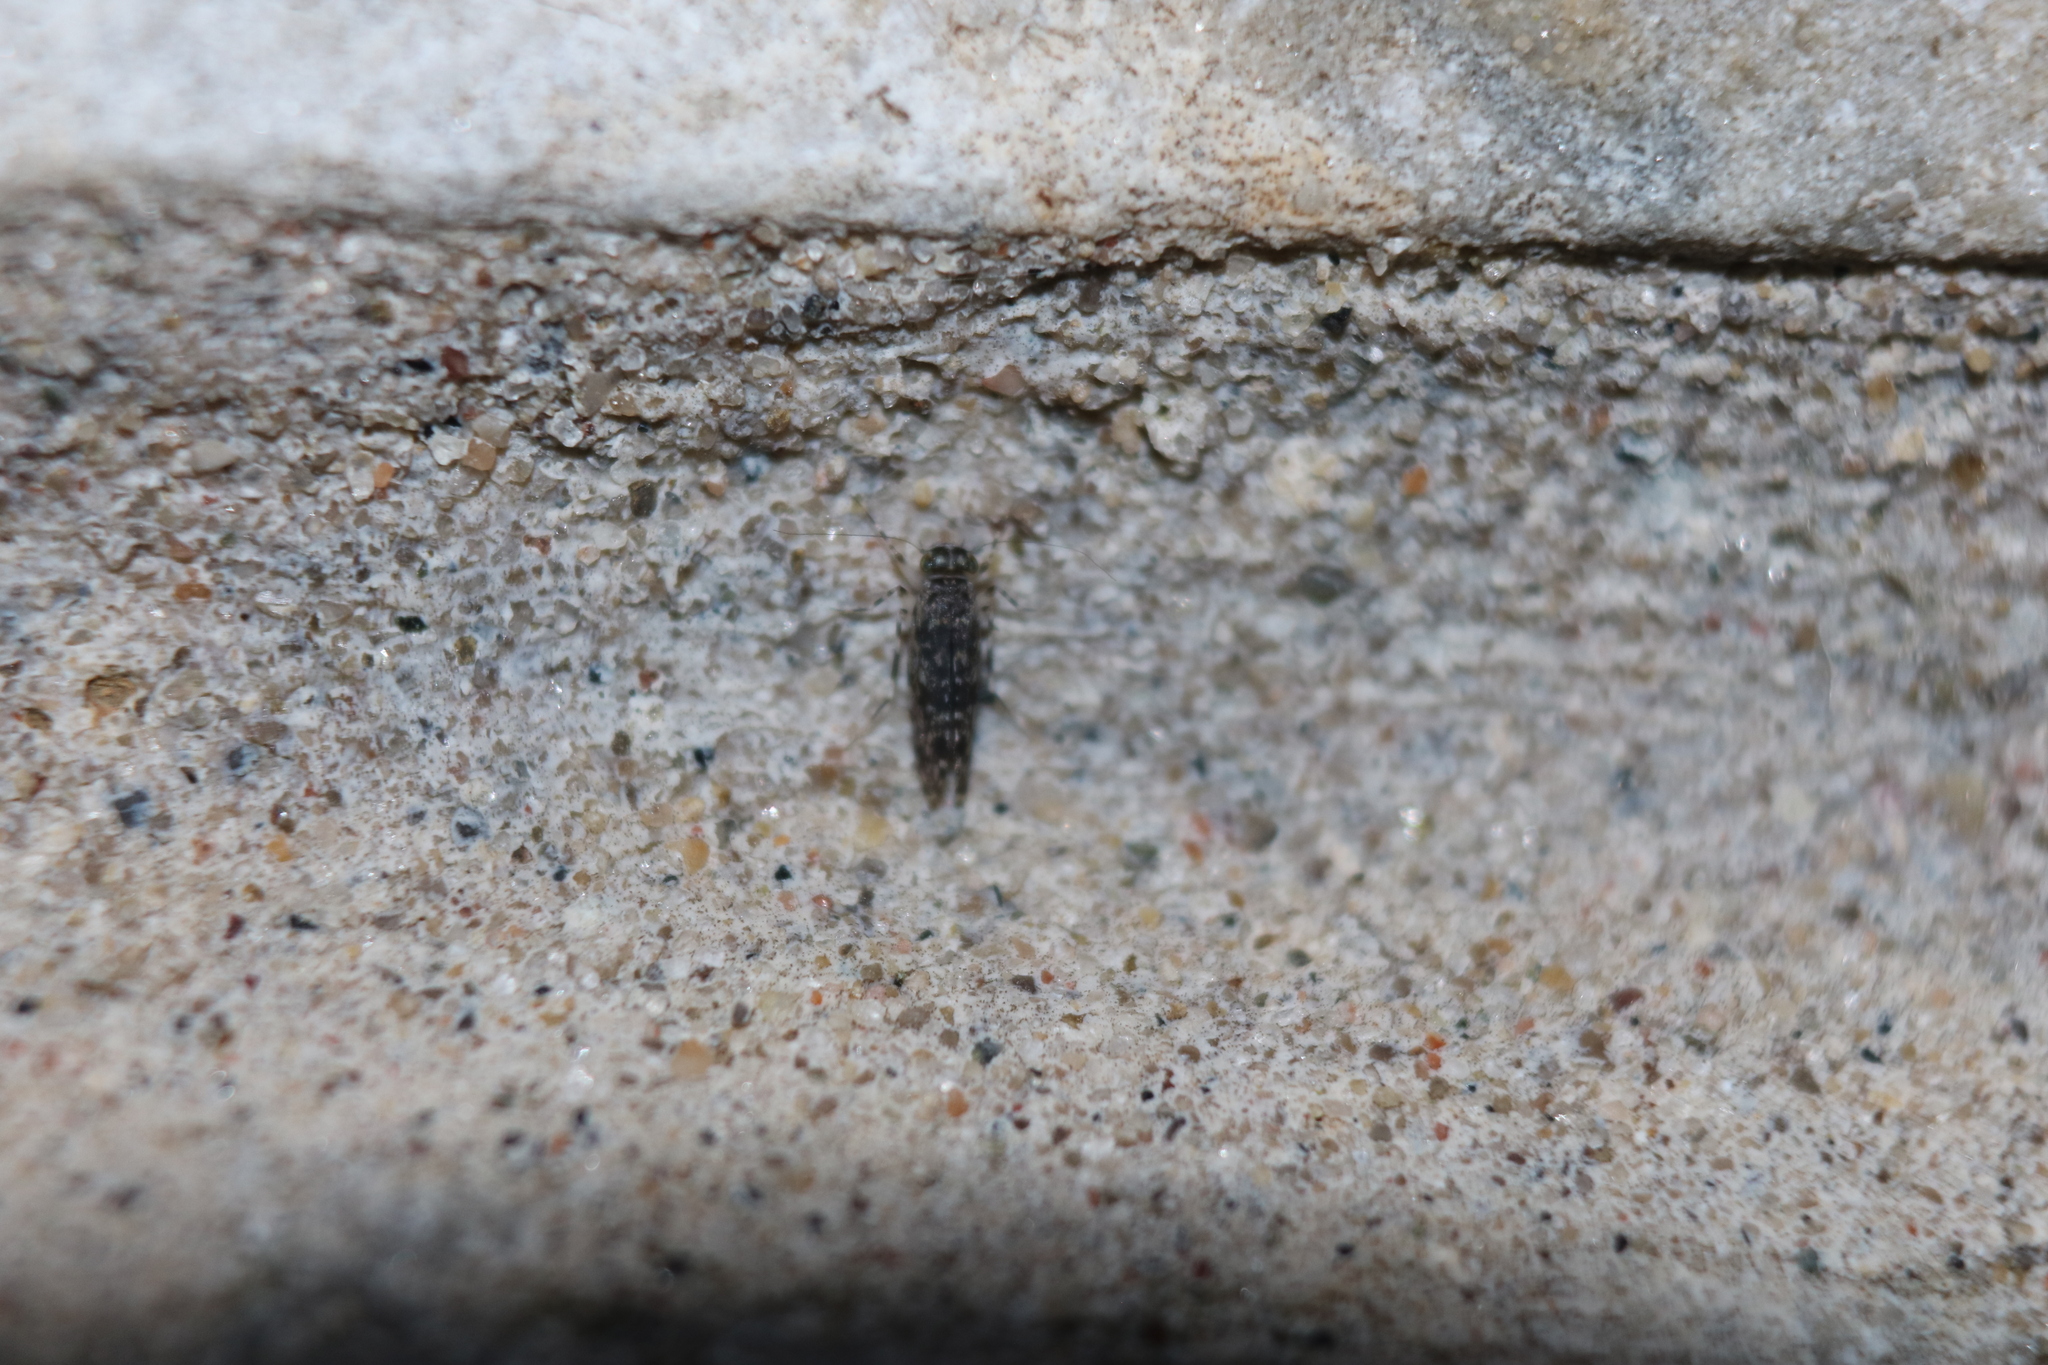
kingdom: Animalia
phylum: Arthropoda
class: Insecta
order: Psocodea
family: Amphientomidae
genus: Stimulopalpus
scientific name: Stimulopalpus japonicus
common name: Tropical bark louse
